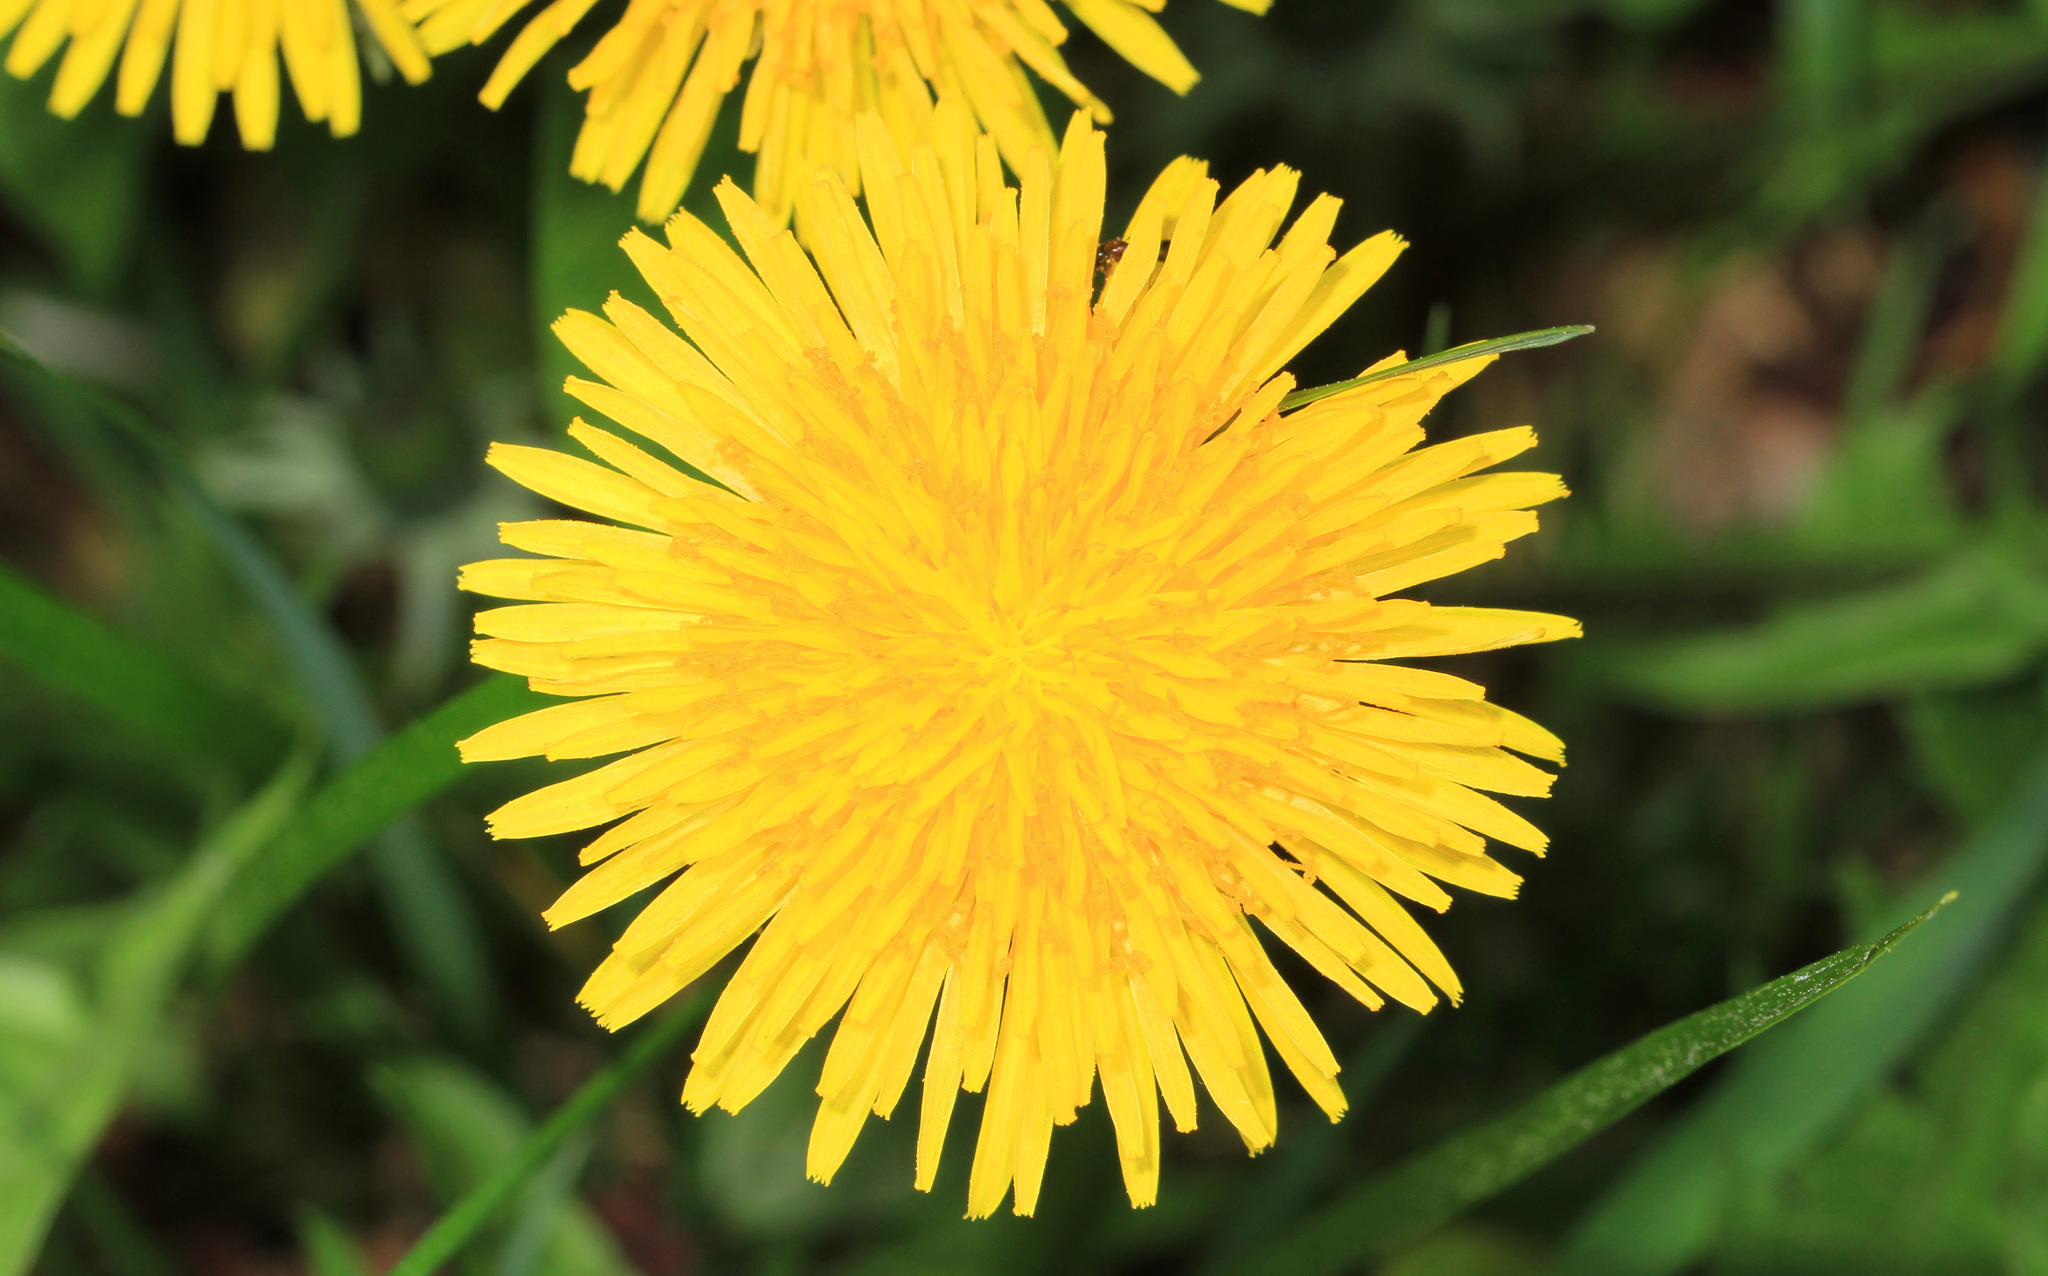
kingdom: Plantae
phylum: Tracheophyta
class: Magnoliopsida
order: Asterales
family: Asteraceae
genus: Taraxacum
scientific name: Taraxacum officinale
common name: Common dandelion
